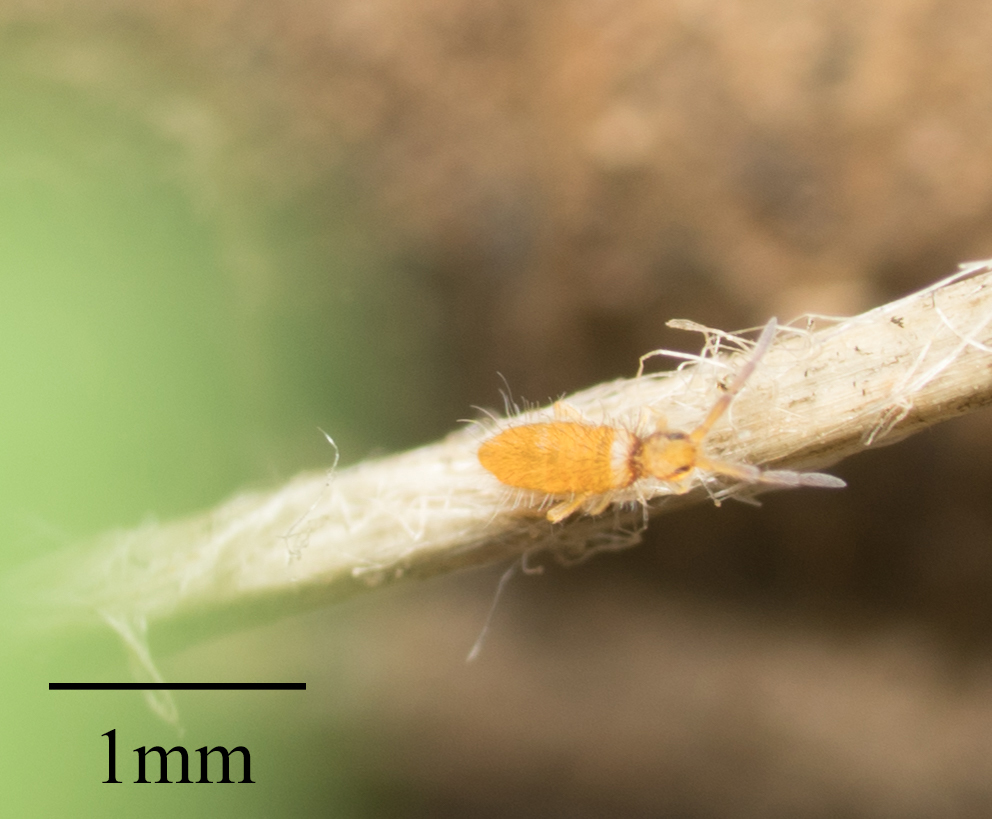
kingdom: Animalia
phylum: Arthropoda
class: Collembola
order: Entomobryomorpha
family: Entomobryidae
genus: Entomobrya
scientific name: Entomobrya atrocincta
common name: Springtail
